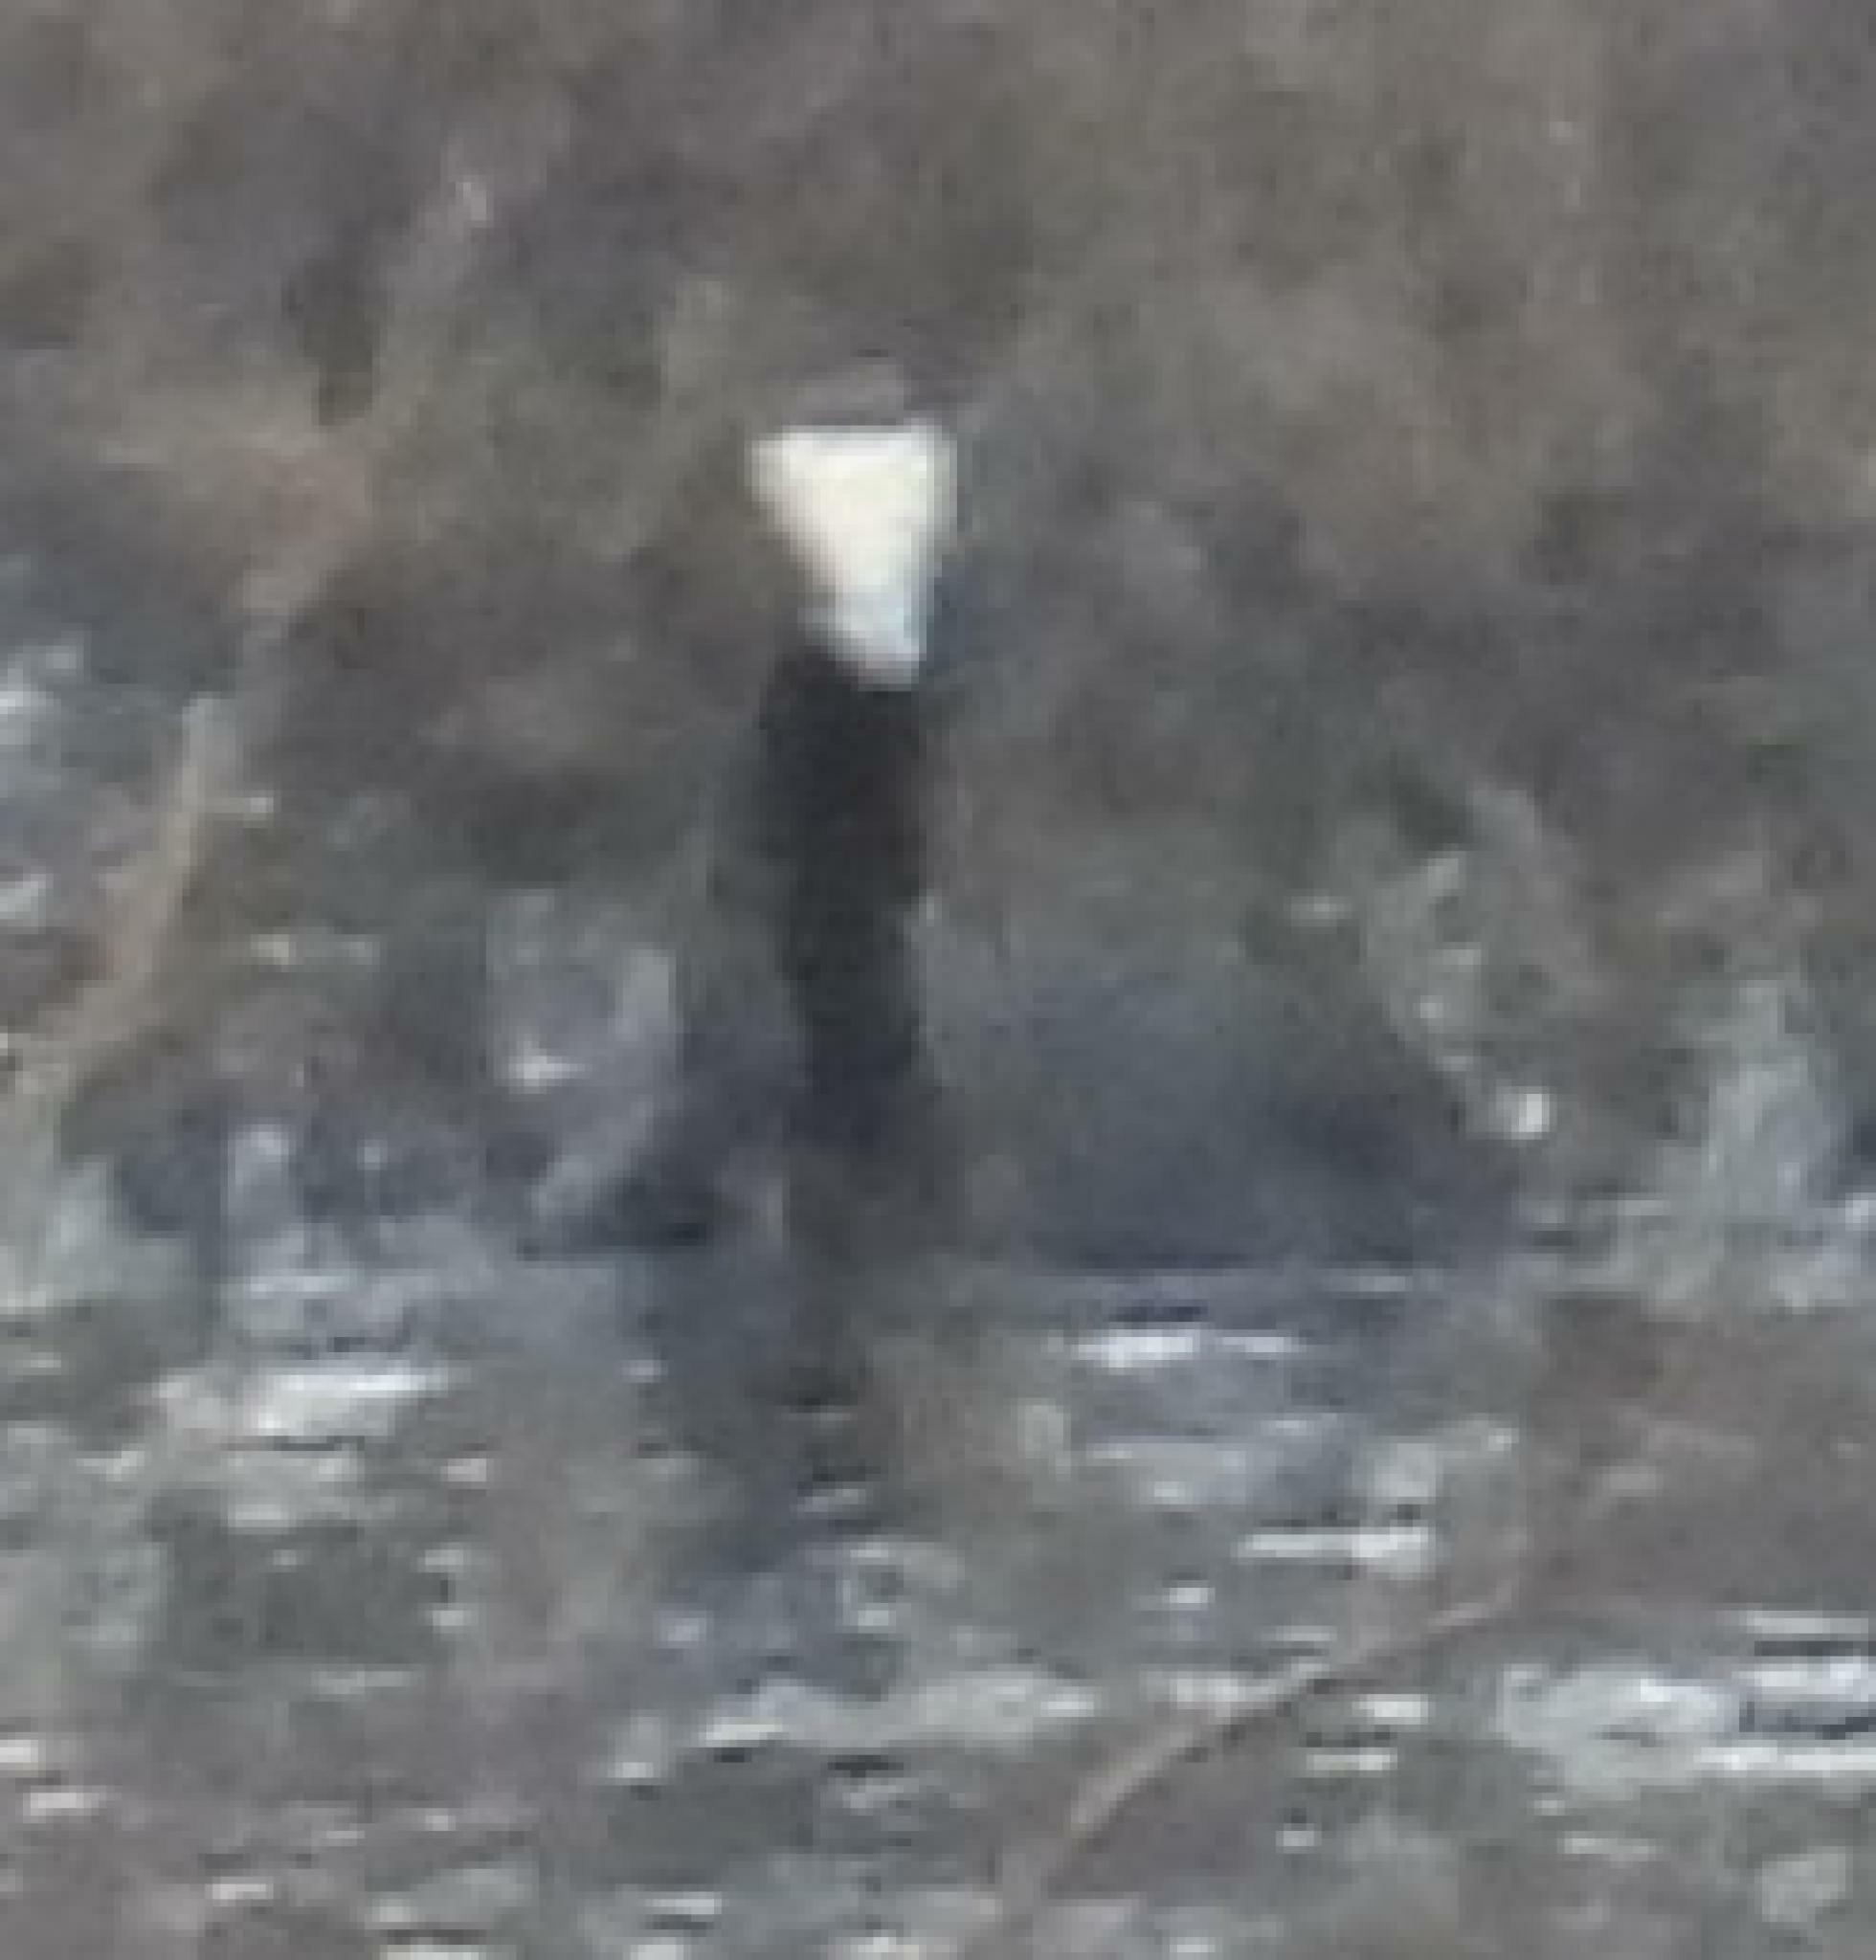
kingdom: Animalia
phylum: Chordata
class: Aves
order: Gruiformes
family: Rallidae
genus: Fulica
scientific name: Fulica cristata
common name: Red-knobbed coot
